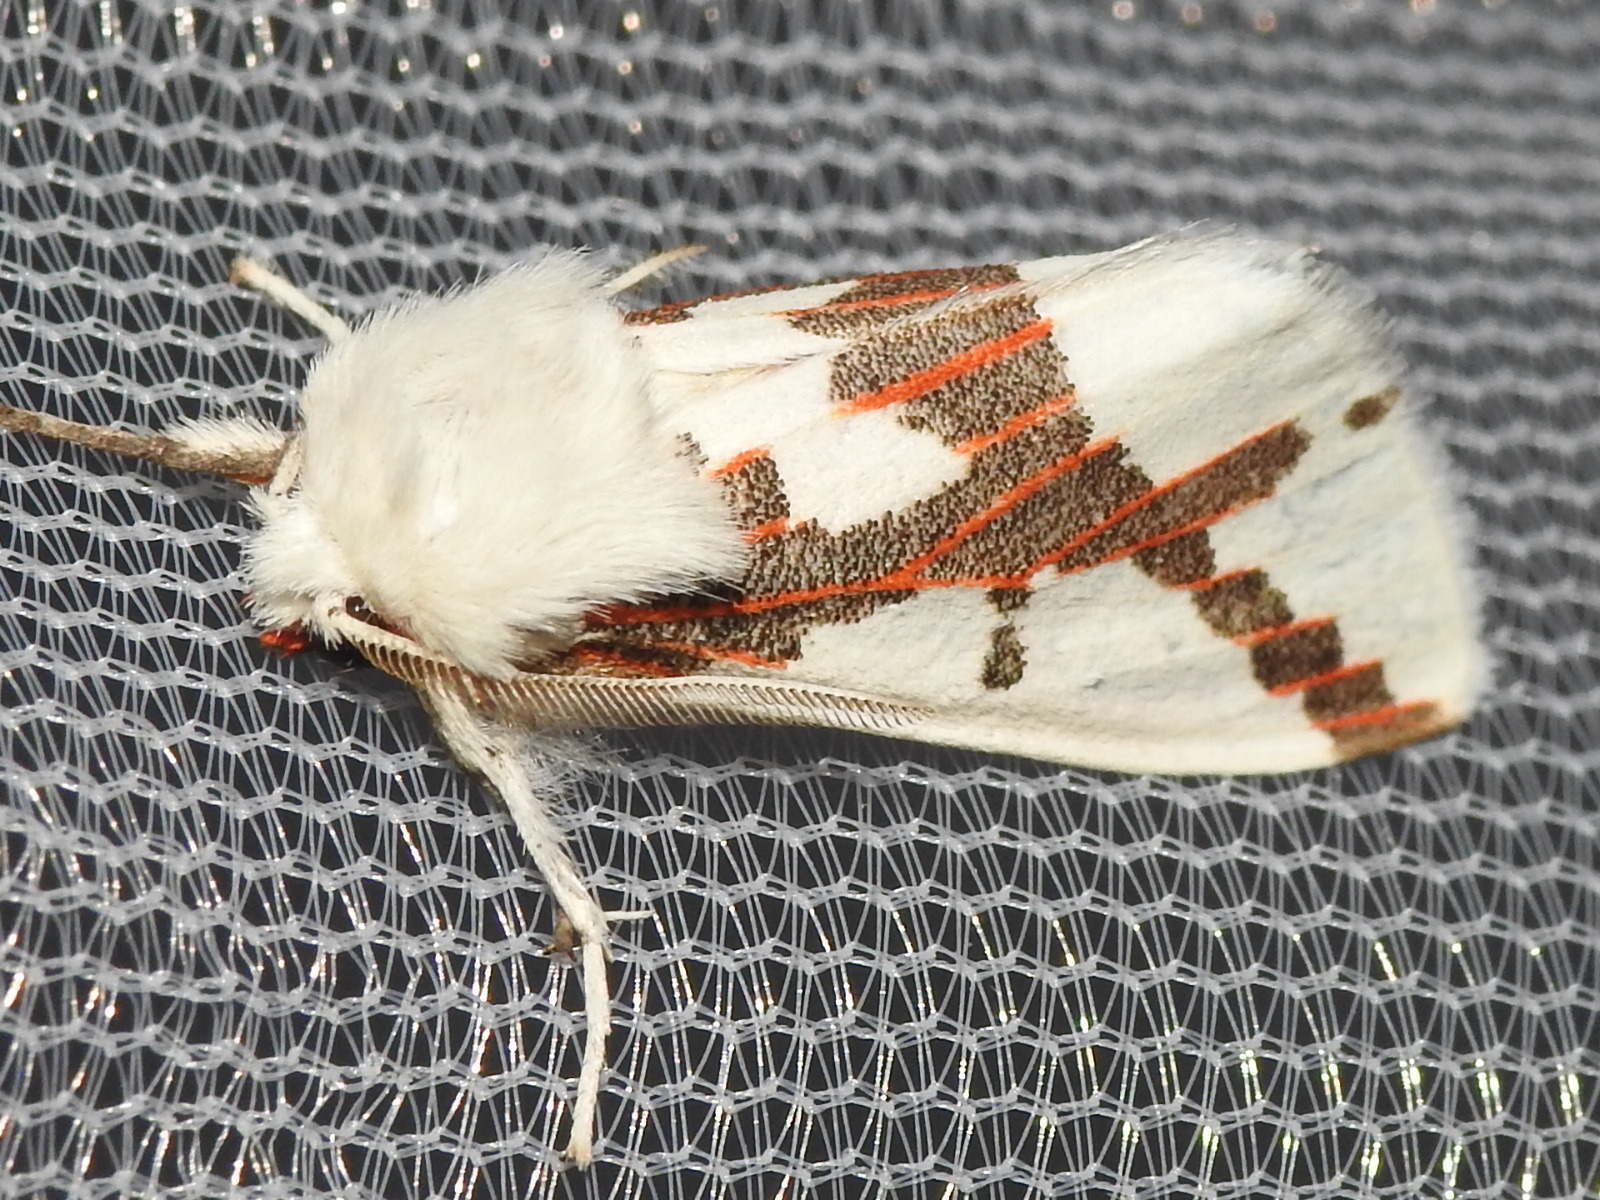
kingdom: Animalia
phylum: Arthropoda
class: Insecta
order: Lepidoptera
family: Erebidae
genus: Euerythra
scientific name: Euerythra phasma
